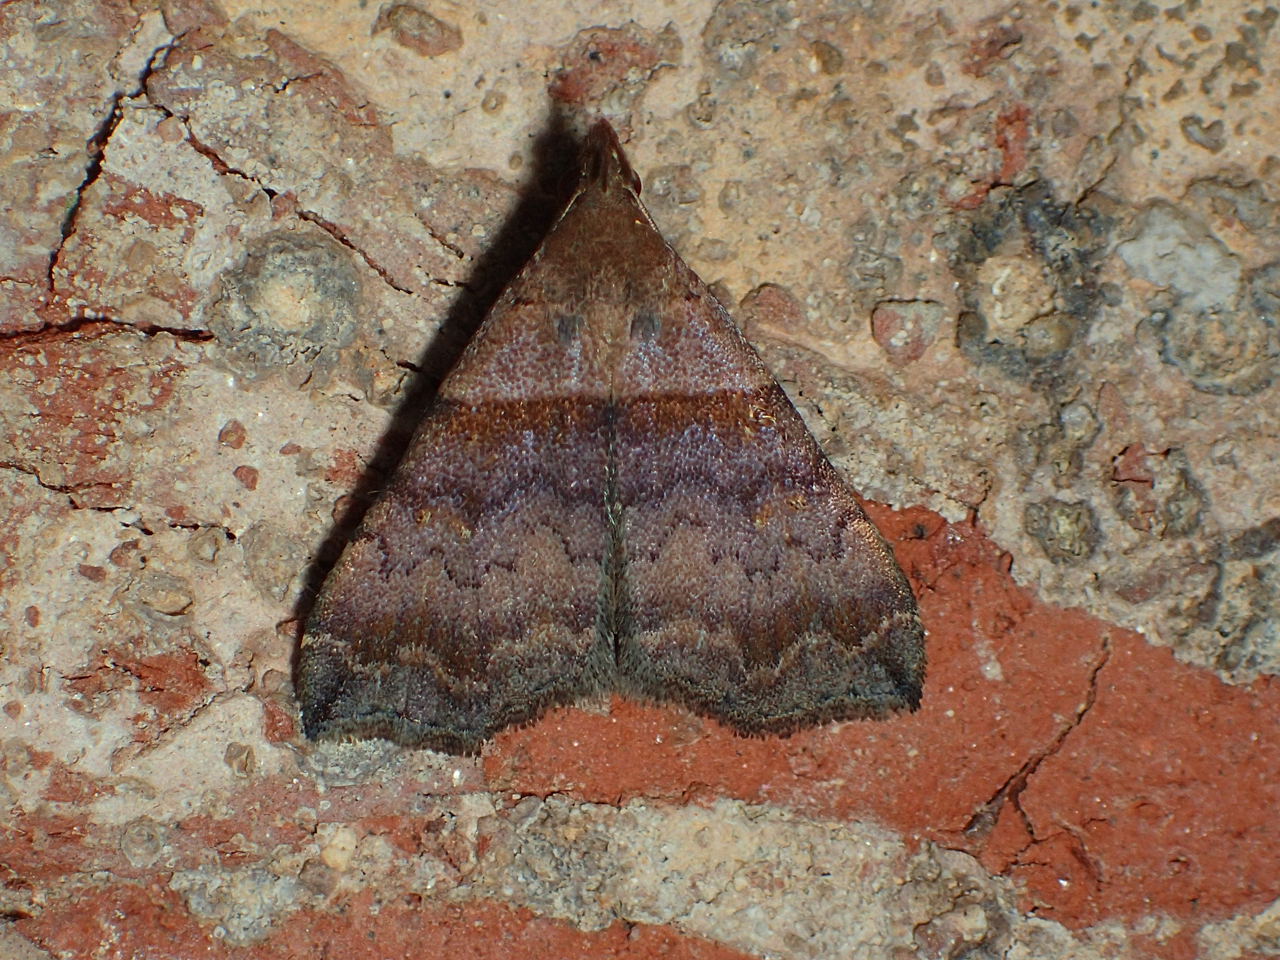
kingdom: Animalia
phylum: Arthropoda
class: Insecta
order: Lepidoptera
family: Erebidae
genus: Lascoria
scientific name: Lascoria ambigualis
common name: Ambiguous moth
